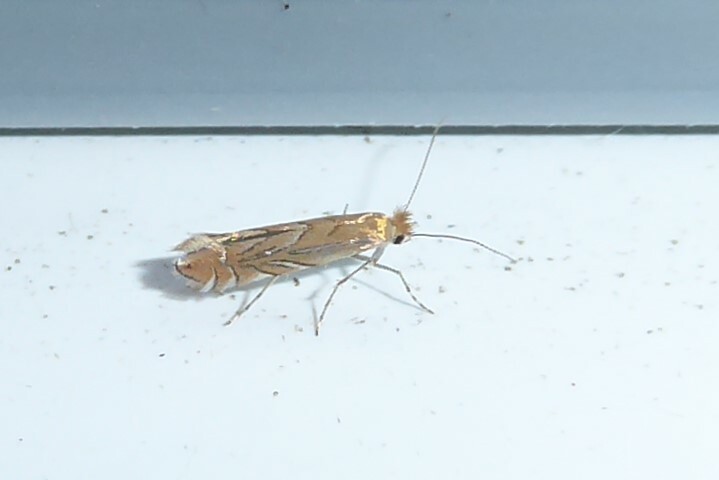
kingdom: Animalia
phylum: Arthropoda
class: Insecta
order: Lepidoptera
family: Gracillariidae
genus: Phyllonorycter
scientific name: Phyllonorycter messaniella
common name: Garden midget
